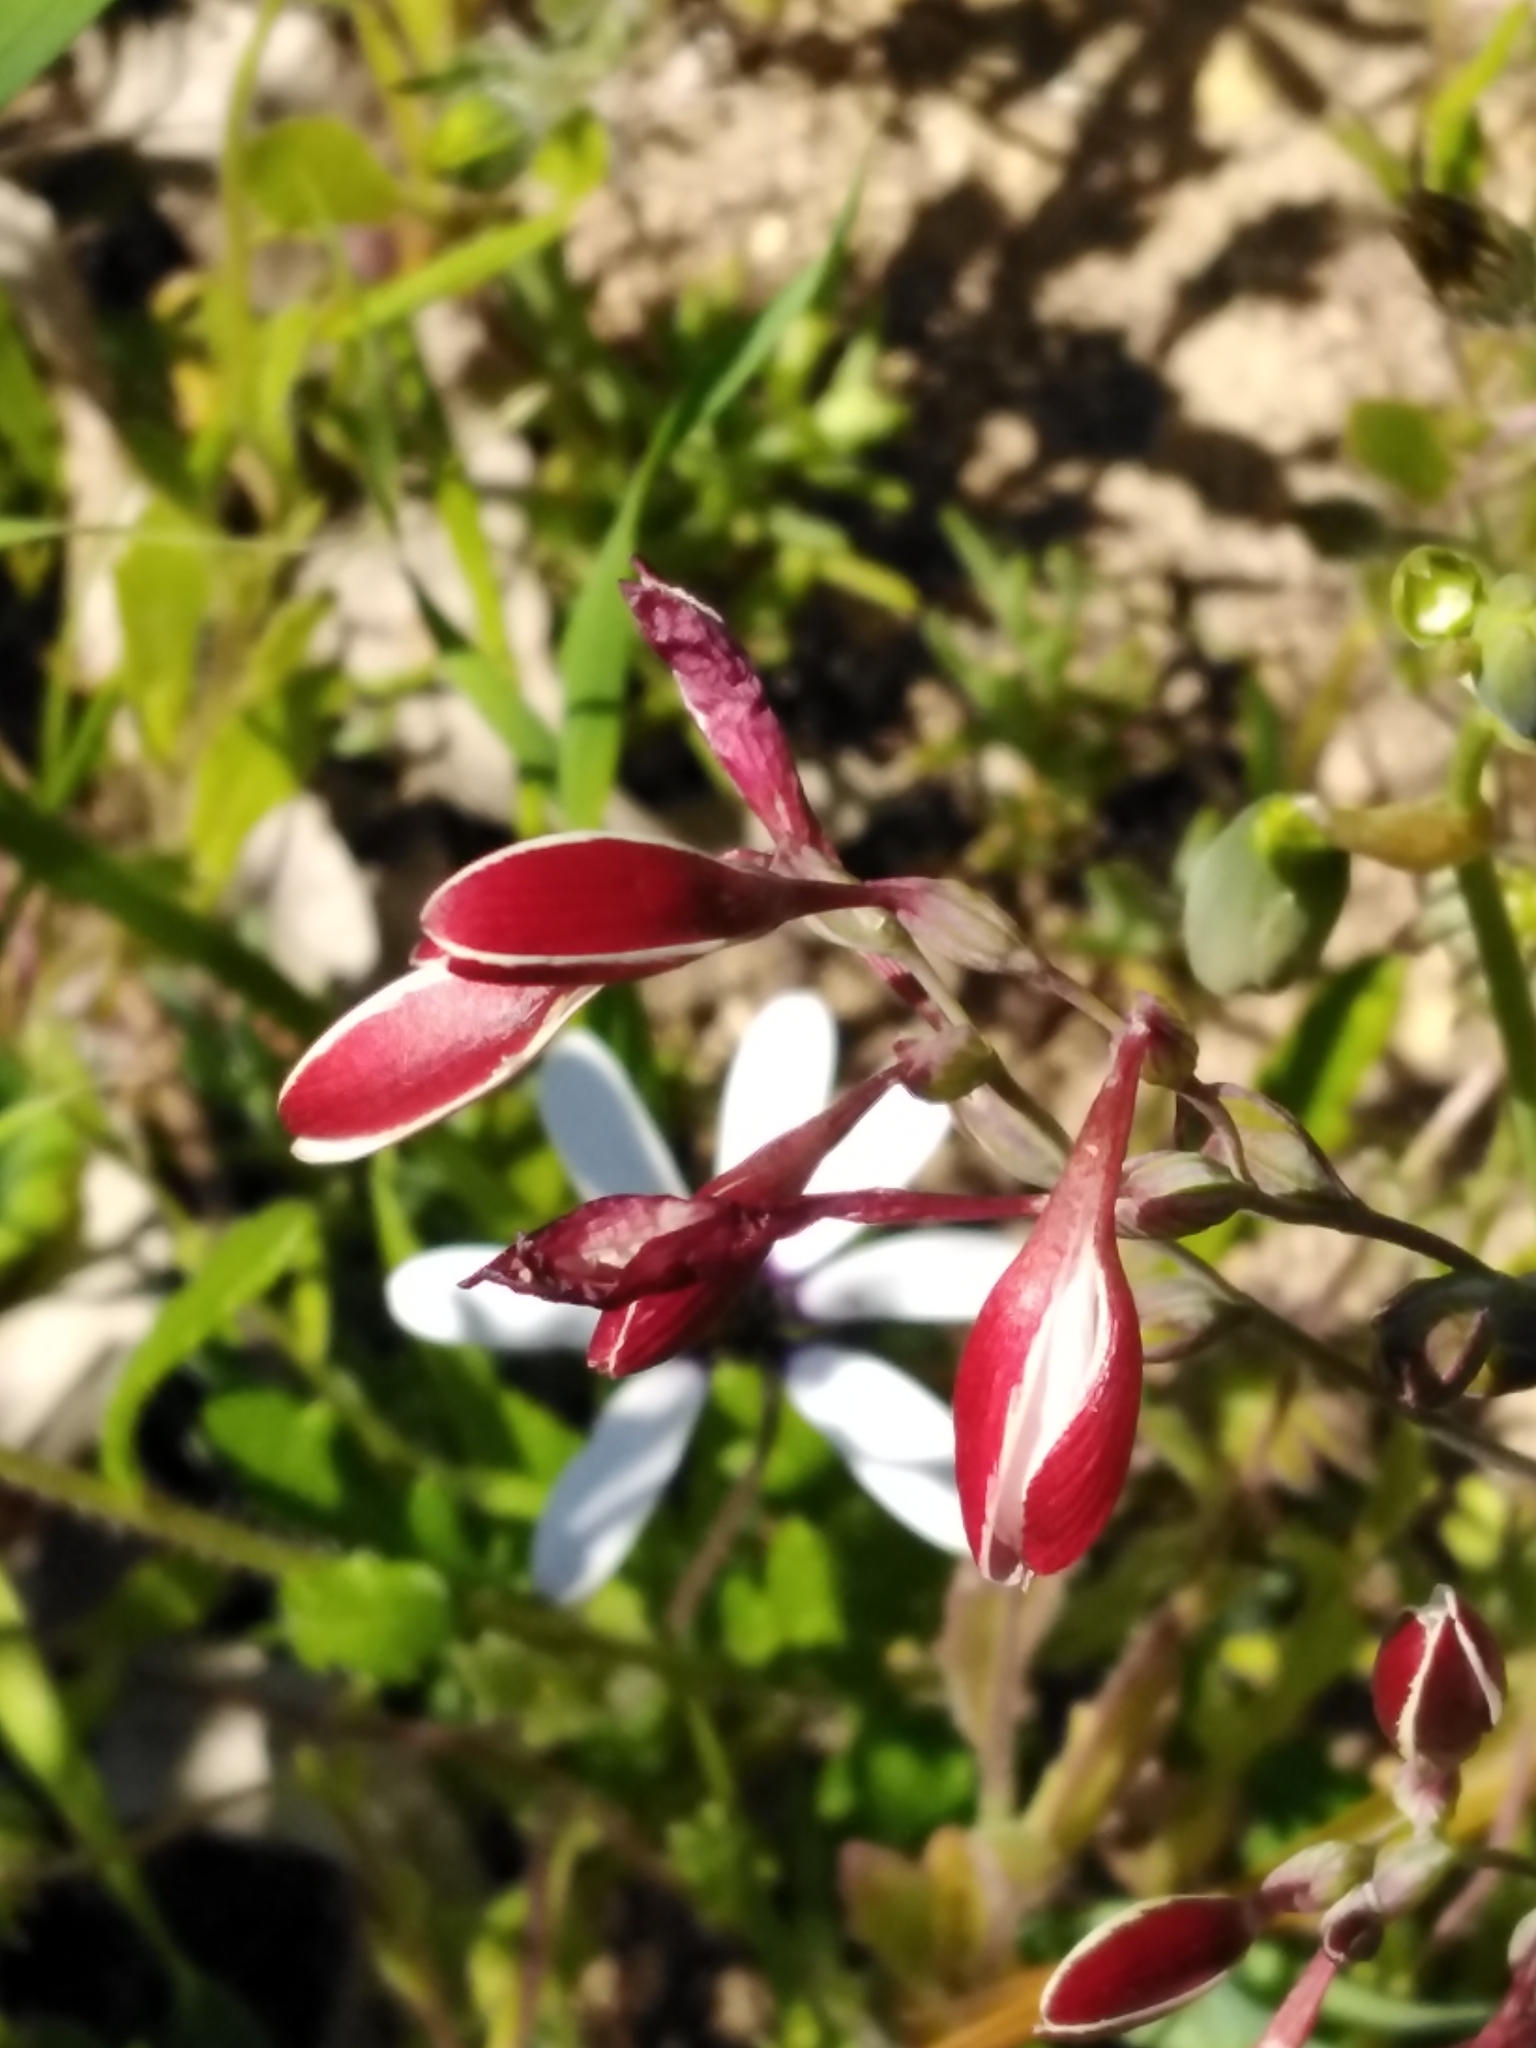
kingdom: Plantae
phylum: Tracheophyta
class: Liliopsida
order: Asparagales
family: Iridaceae
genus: Hesperantha
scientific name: Hesperantha falcata
